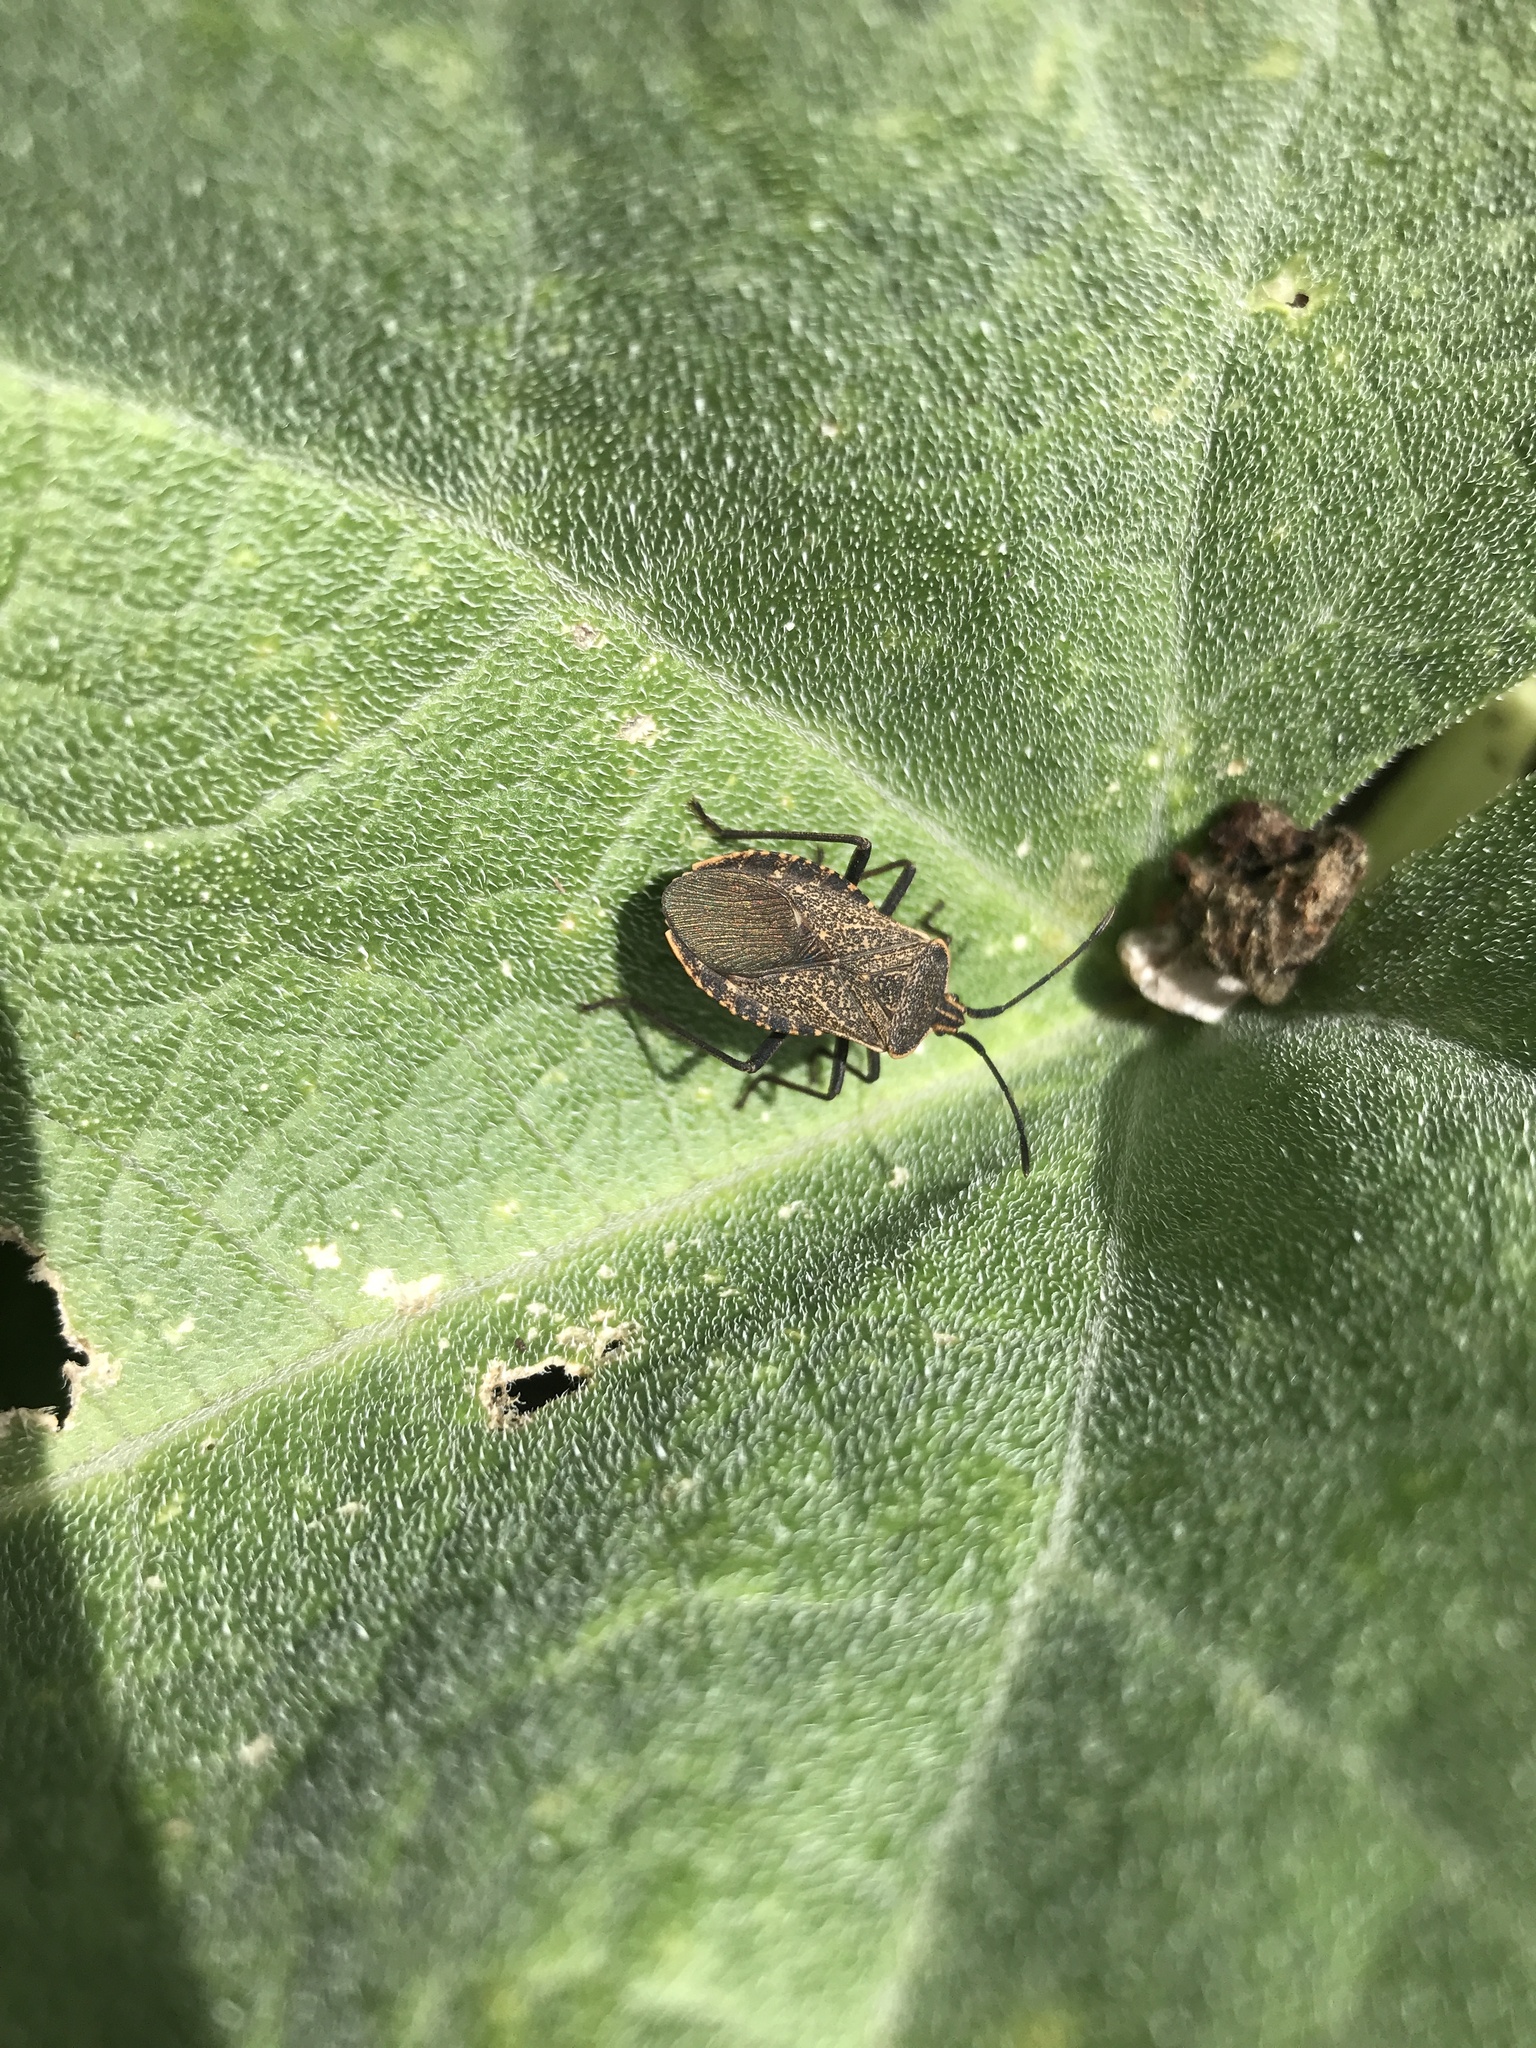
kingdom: Animalia
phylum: Arthropoda
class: Insecta
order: Hemiptera
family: Coreidae
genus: Anasa
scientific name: Anasa tristis
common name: Squash bug
